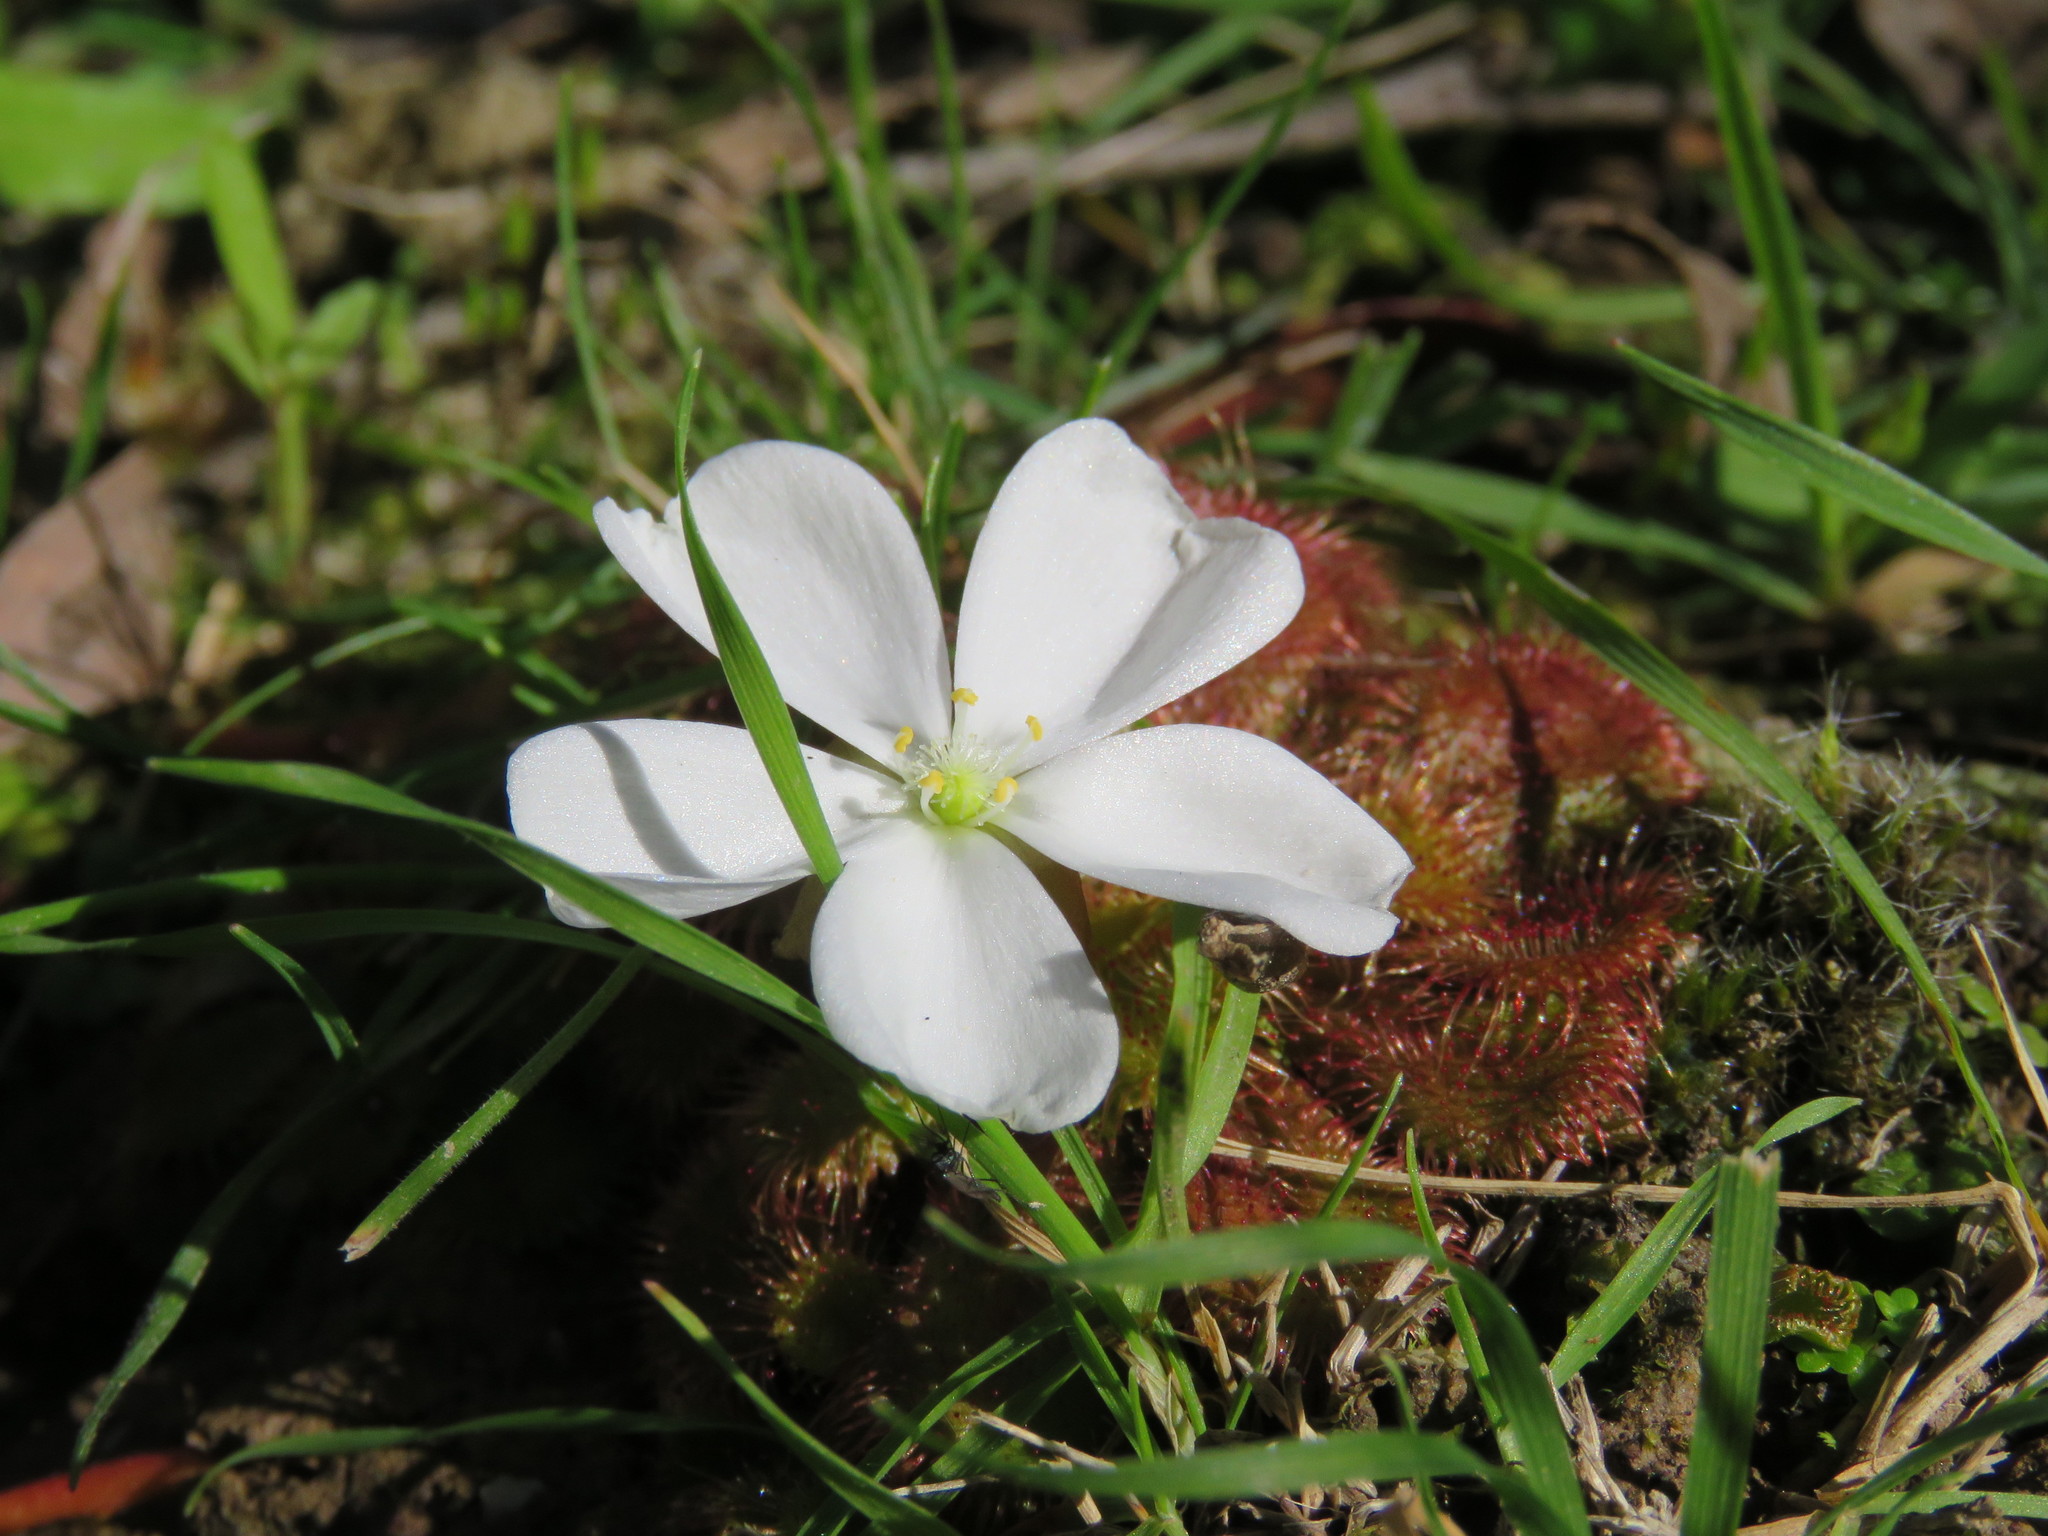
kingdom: Plantae
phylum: Tracheophyta
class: Magnoliopsida
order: Caryophyllales
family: Droseraceae
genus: Drosera
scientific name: Drosera aberrans
